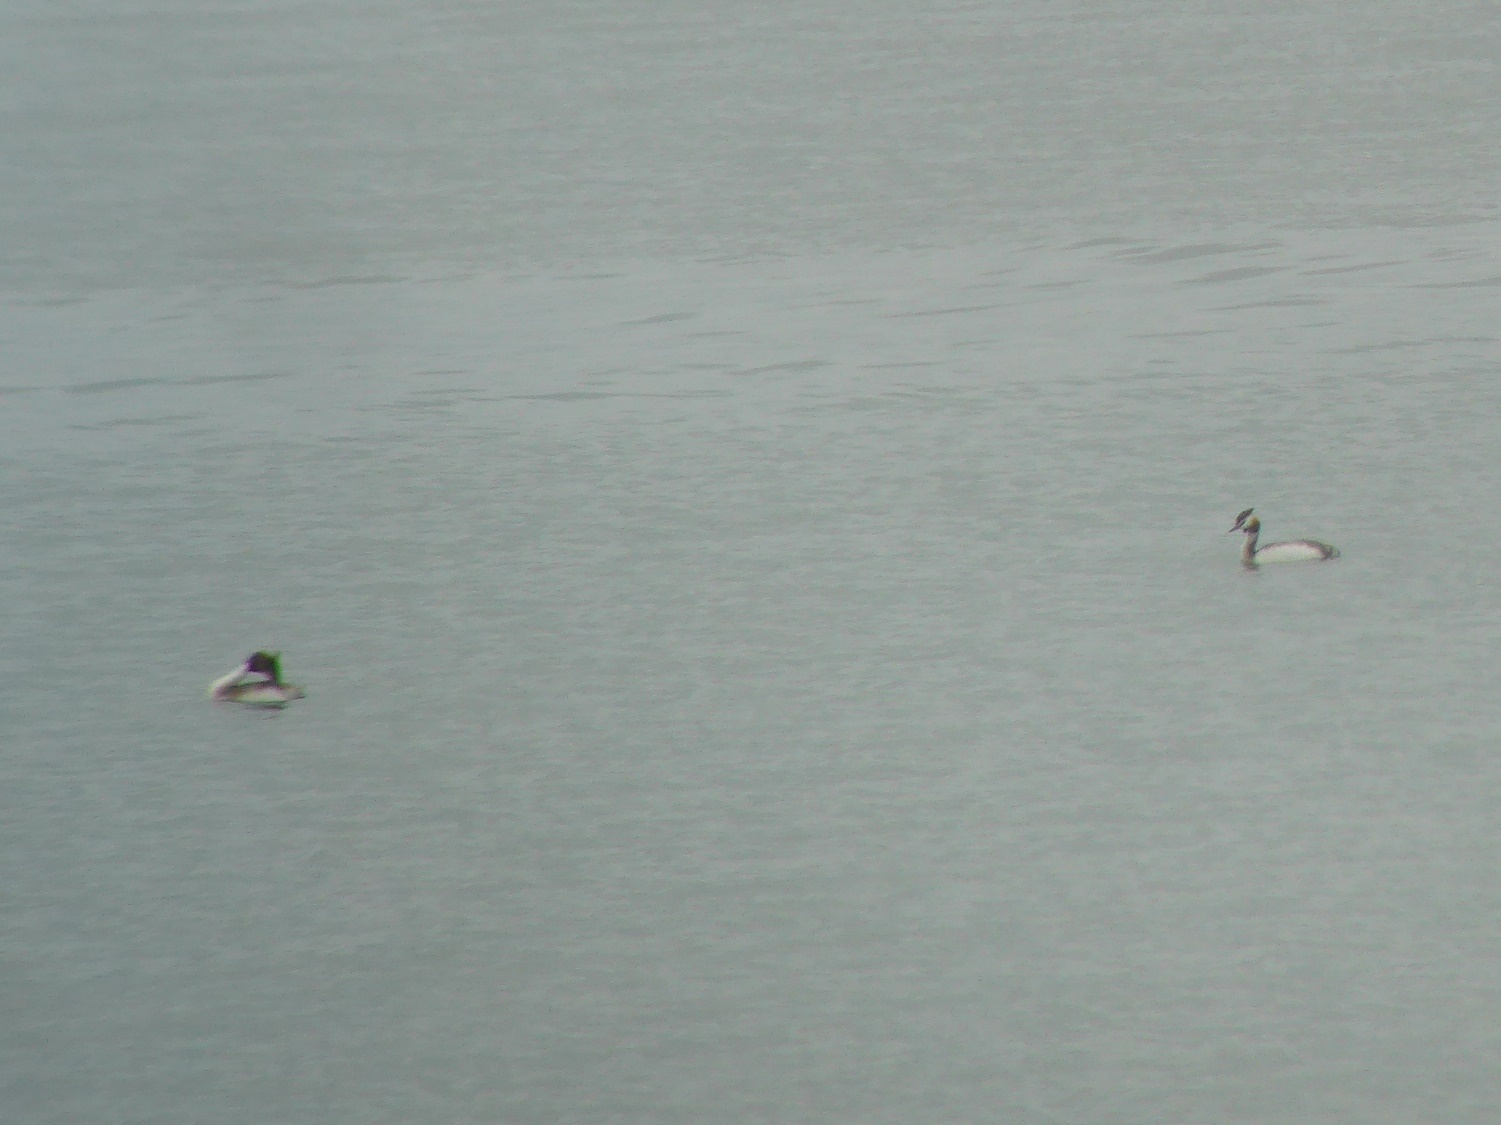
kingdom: Animalia
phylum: Chordata
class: Aves
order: Podicipediformes
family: Podicipedidae
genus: Podiceps
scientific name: Podiceps cristatus
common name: Great crested grebe
